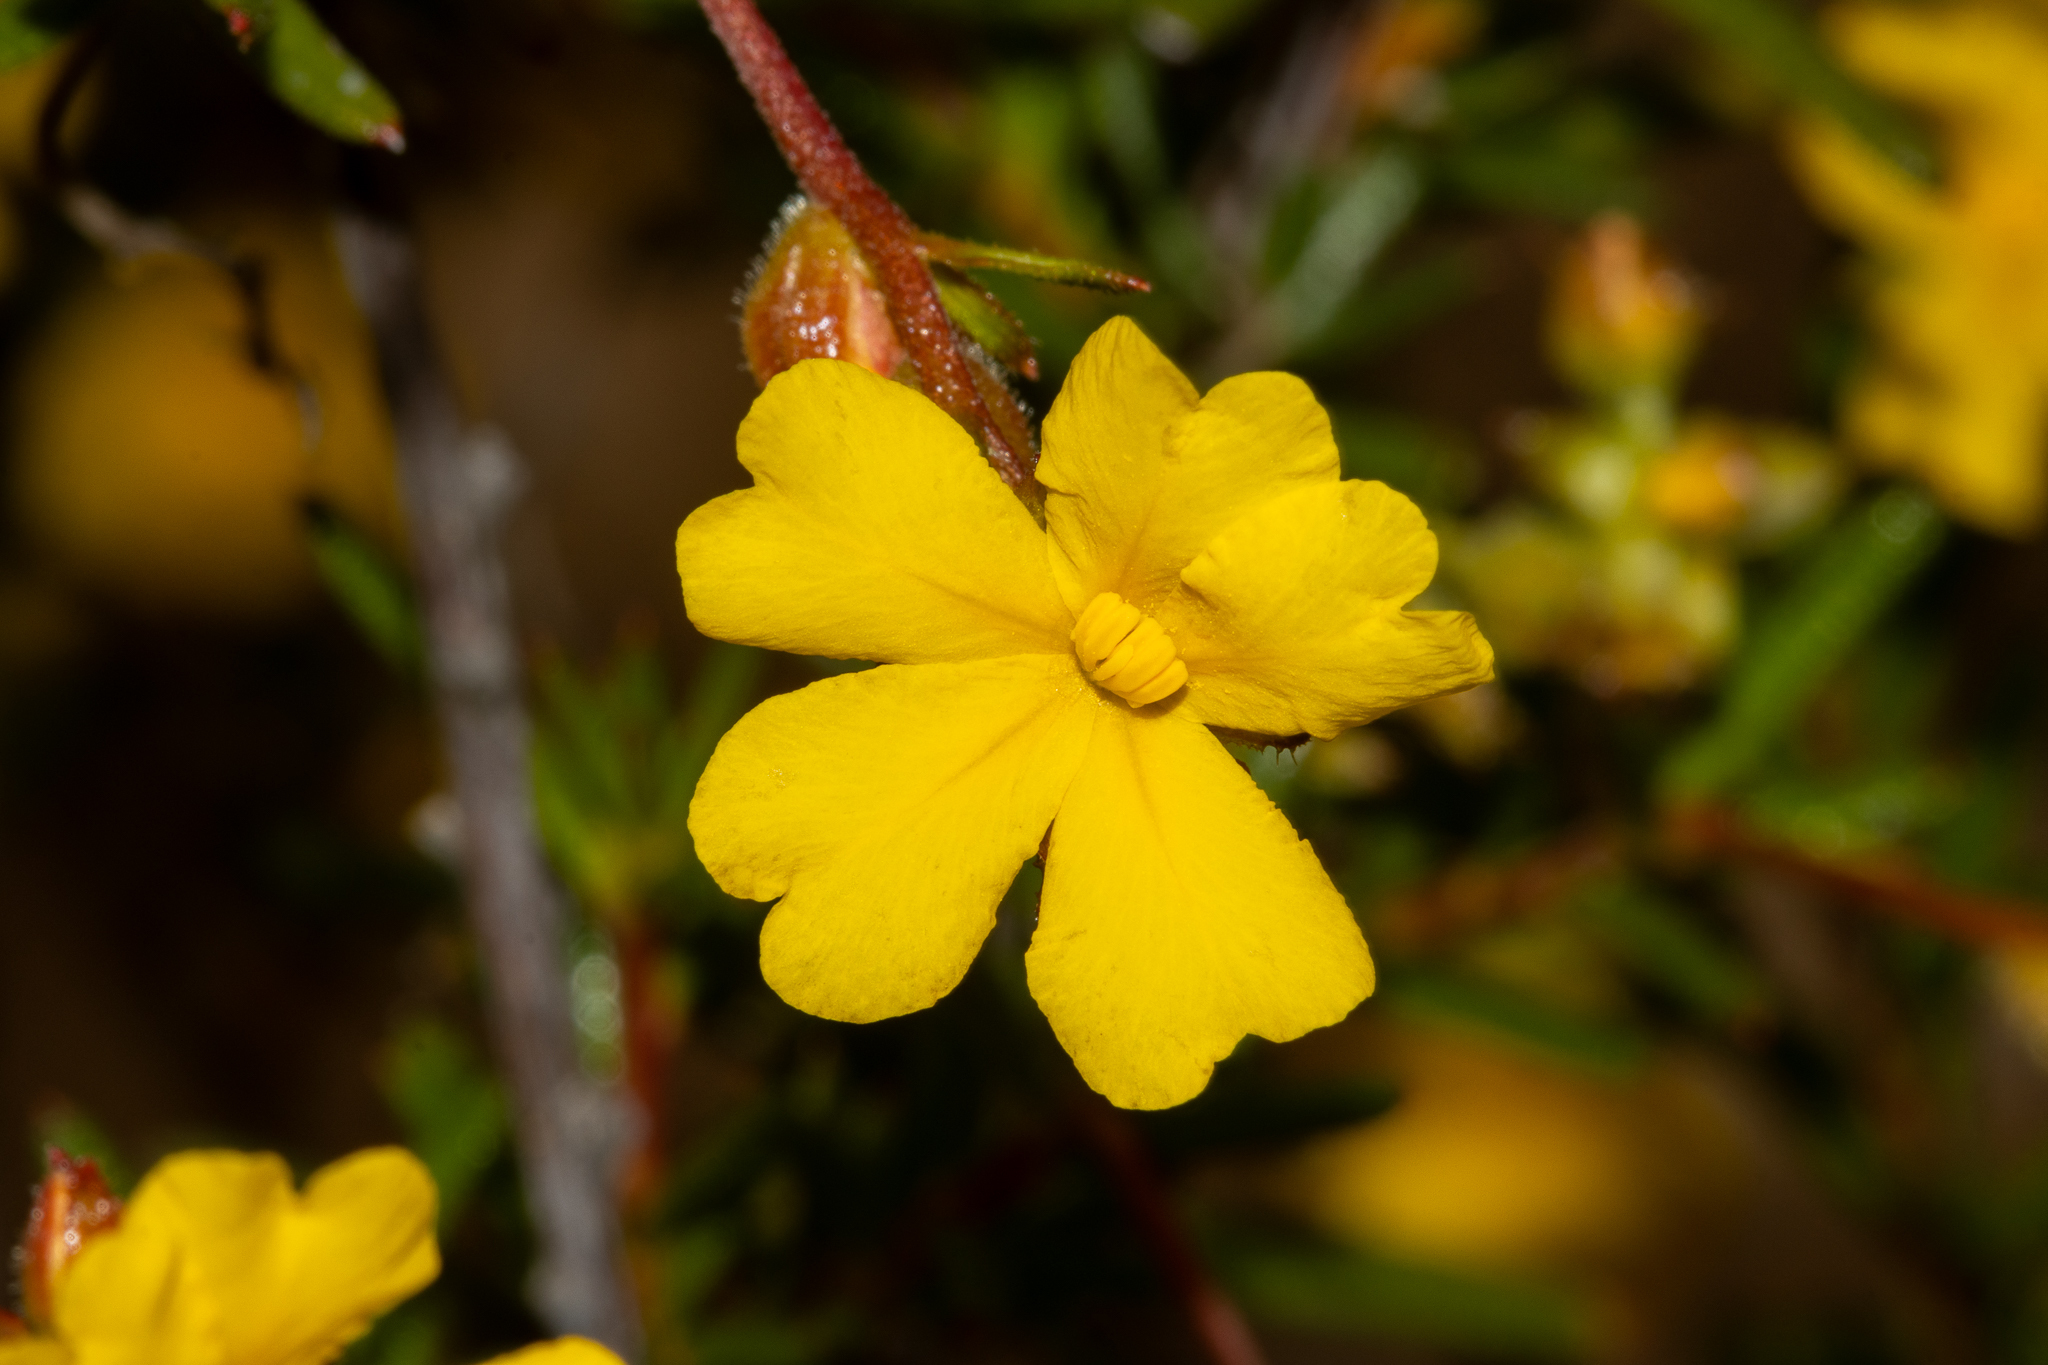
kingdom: Plantae
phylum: Tracheophyta
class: Magnoliopsida
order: Dilleniales
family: Dilleniaceae
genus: Hibbertia
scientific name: Hibbertia prolata
